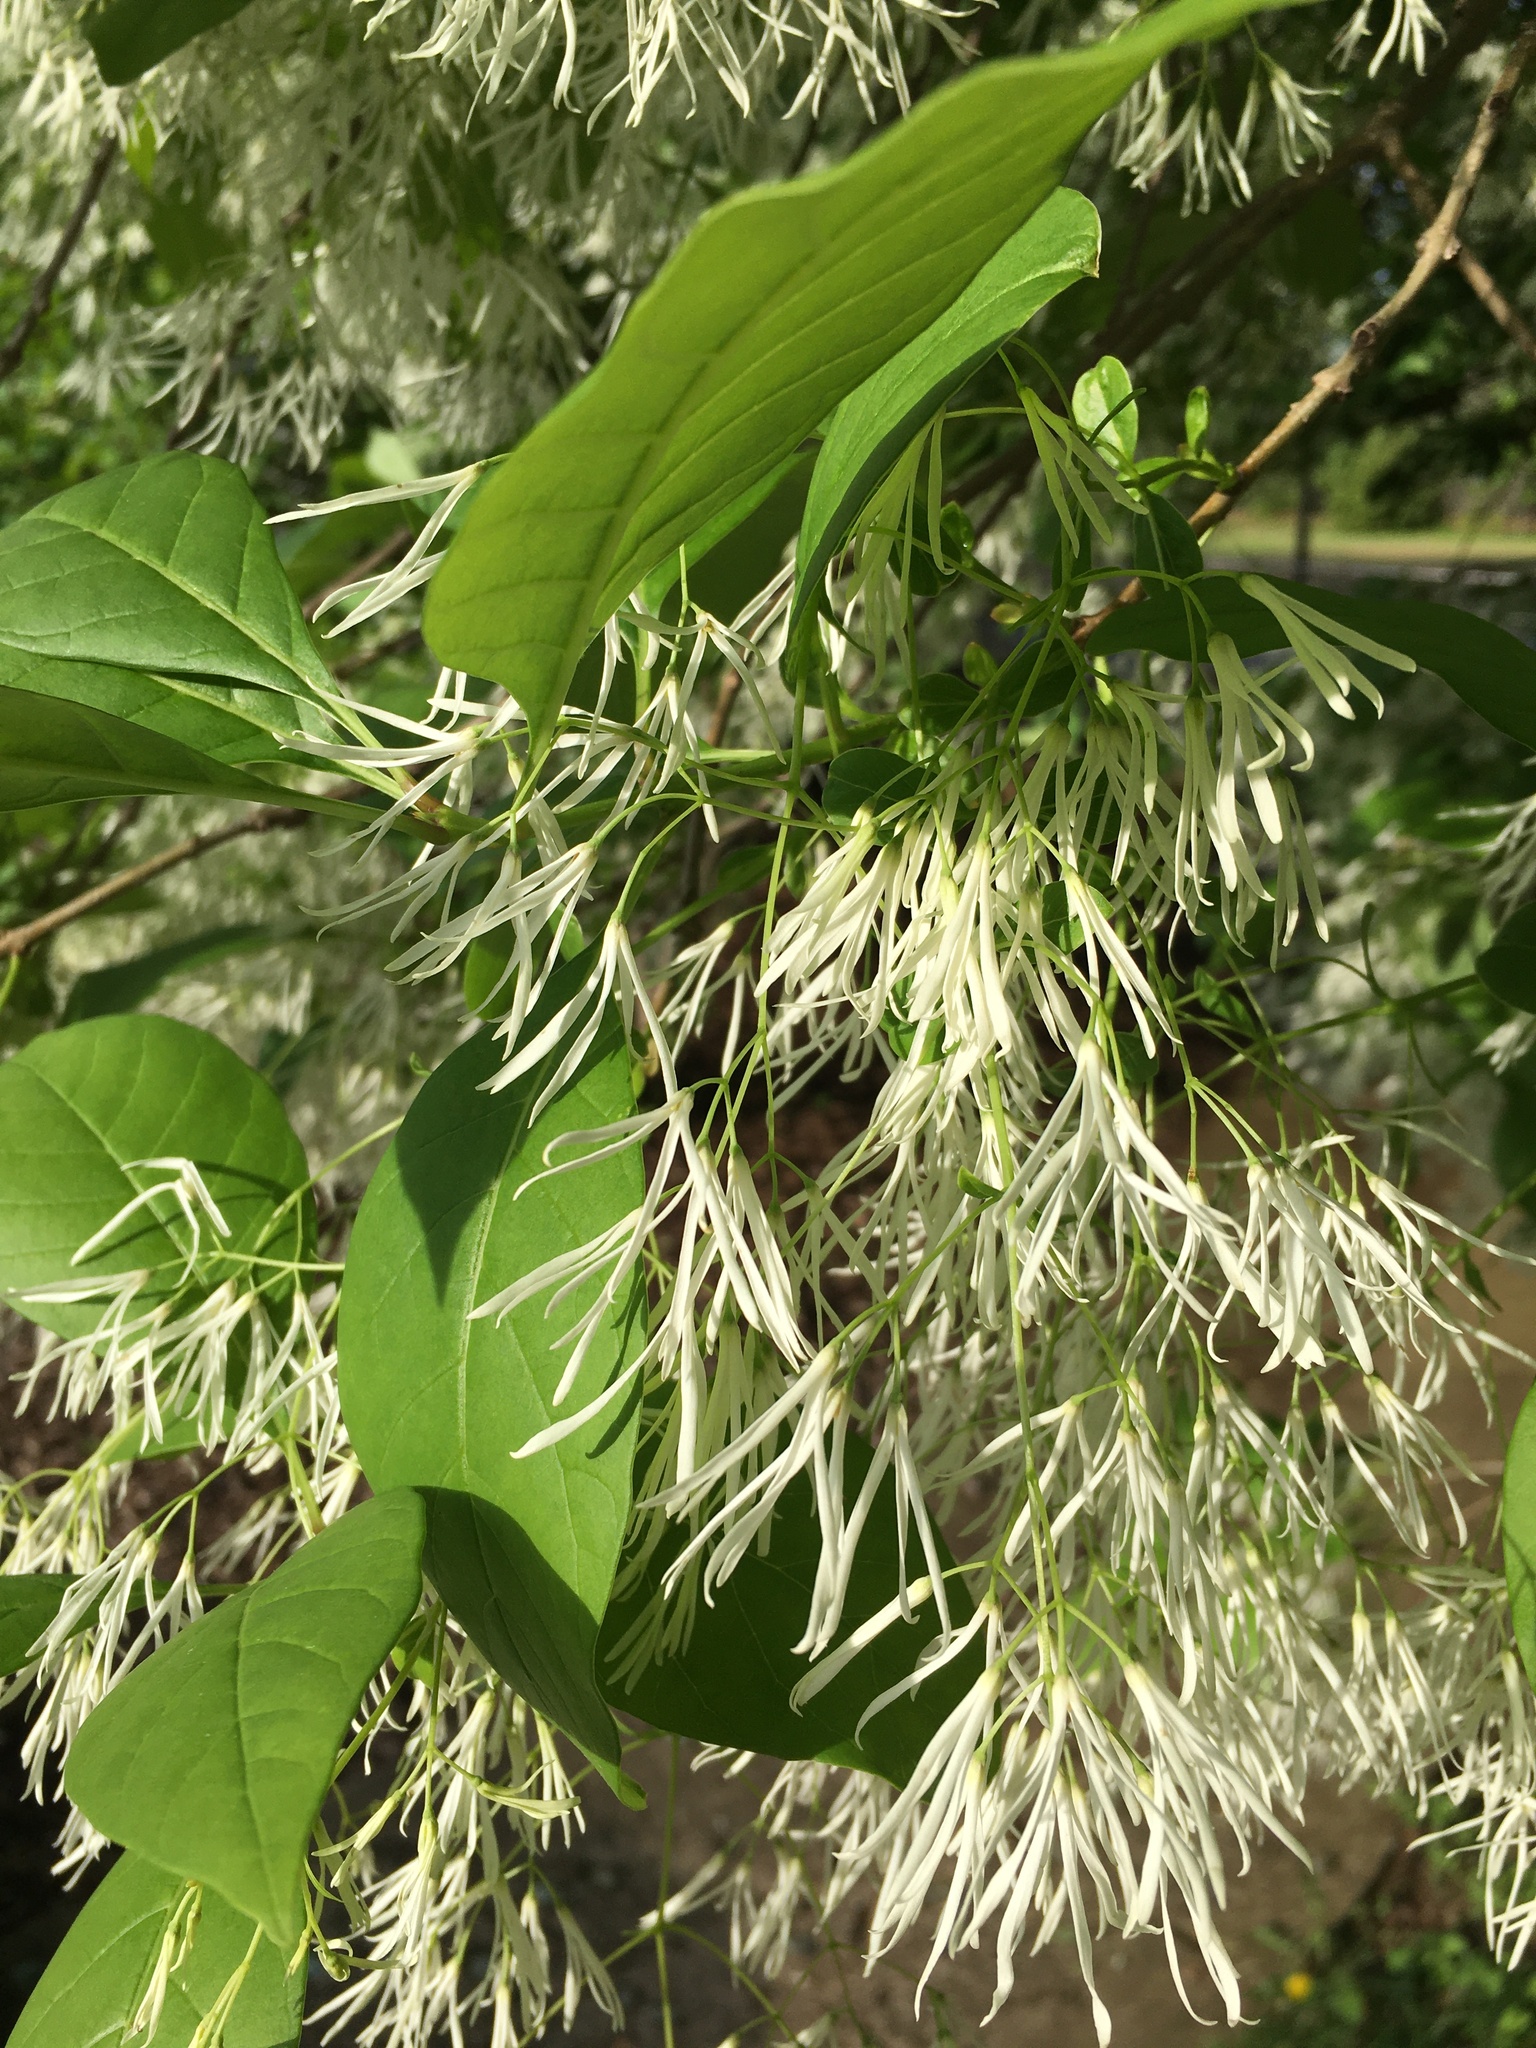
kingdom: Plantae
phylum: Tracheophyta
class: Magnoliopsida
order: Lamiales
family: Oleaceae
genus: Chionanthus
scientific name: Chionanthus virginicus
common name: American fringetree
